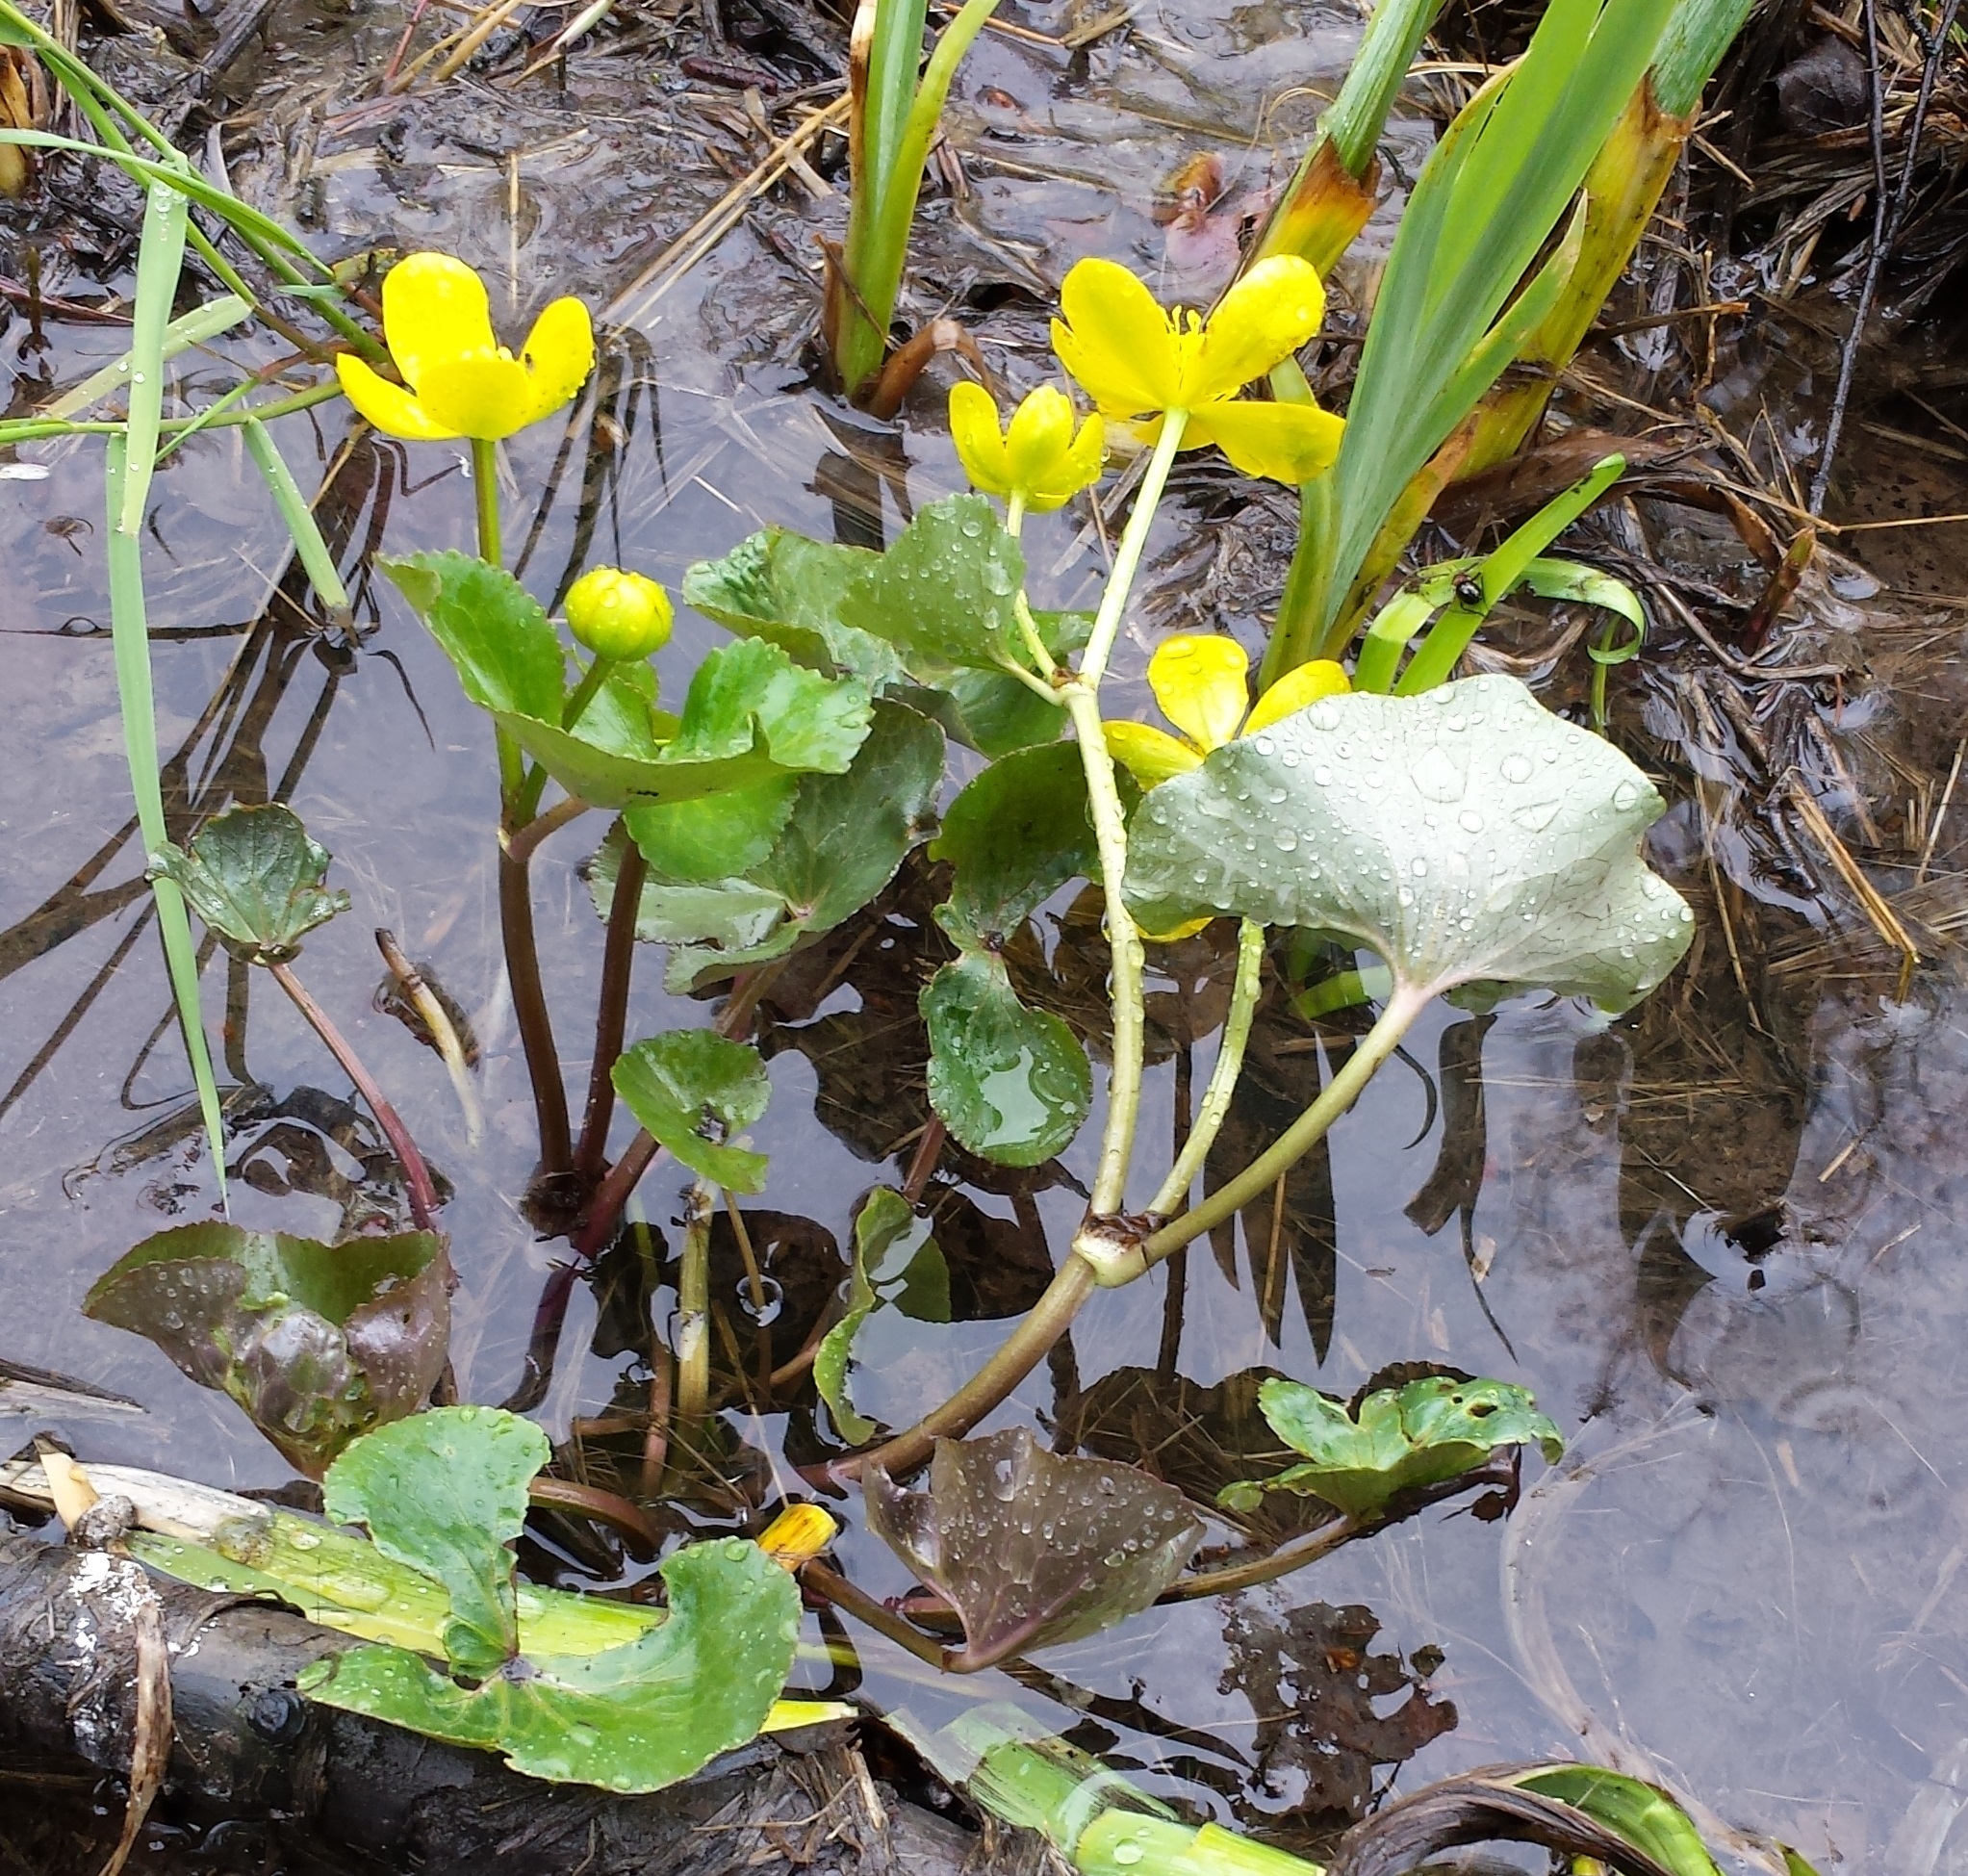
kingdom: Plantae
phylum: Tracheophyta
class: Magnoliopsida
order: Ranunculales
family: Ranunculaceae
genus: Caltha
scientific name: Caltha palustris
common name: Marsh marigold
